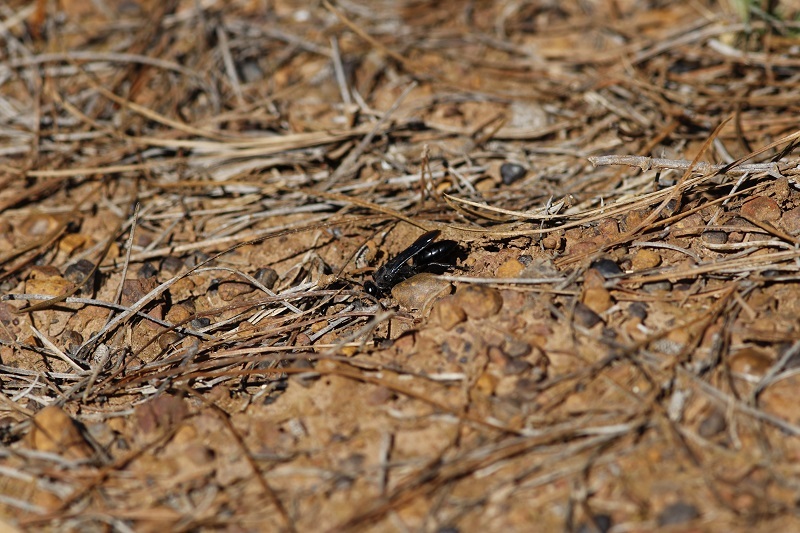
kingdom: Animalia
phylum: Arthropoda
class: Insecta
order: Hymenoptera
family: Sphecidae
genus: Sphex
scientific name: Sphex
